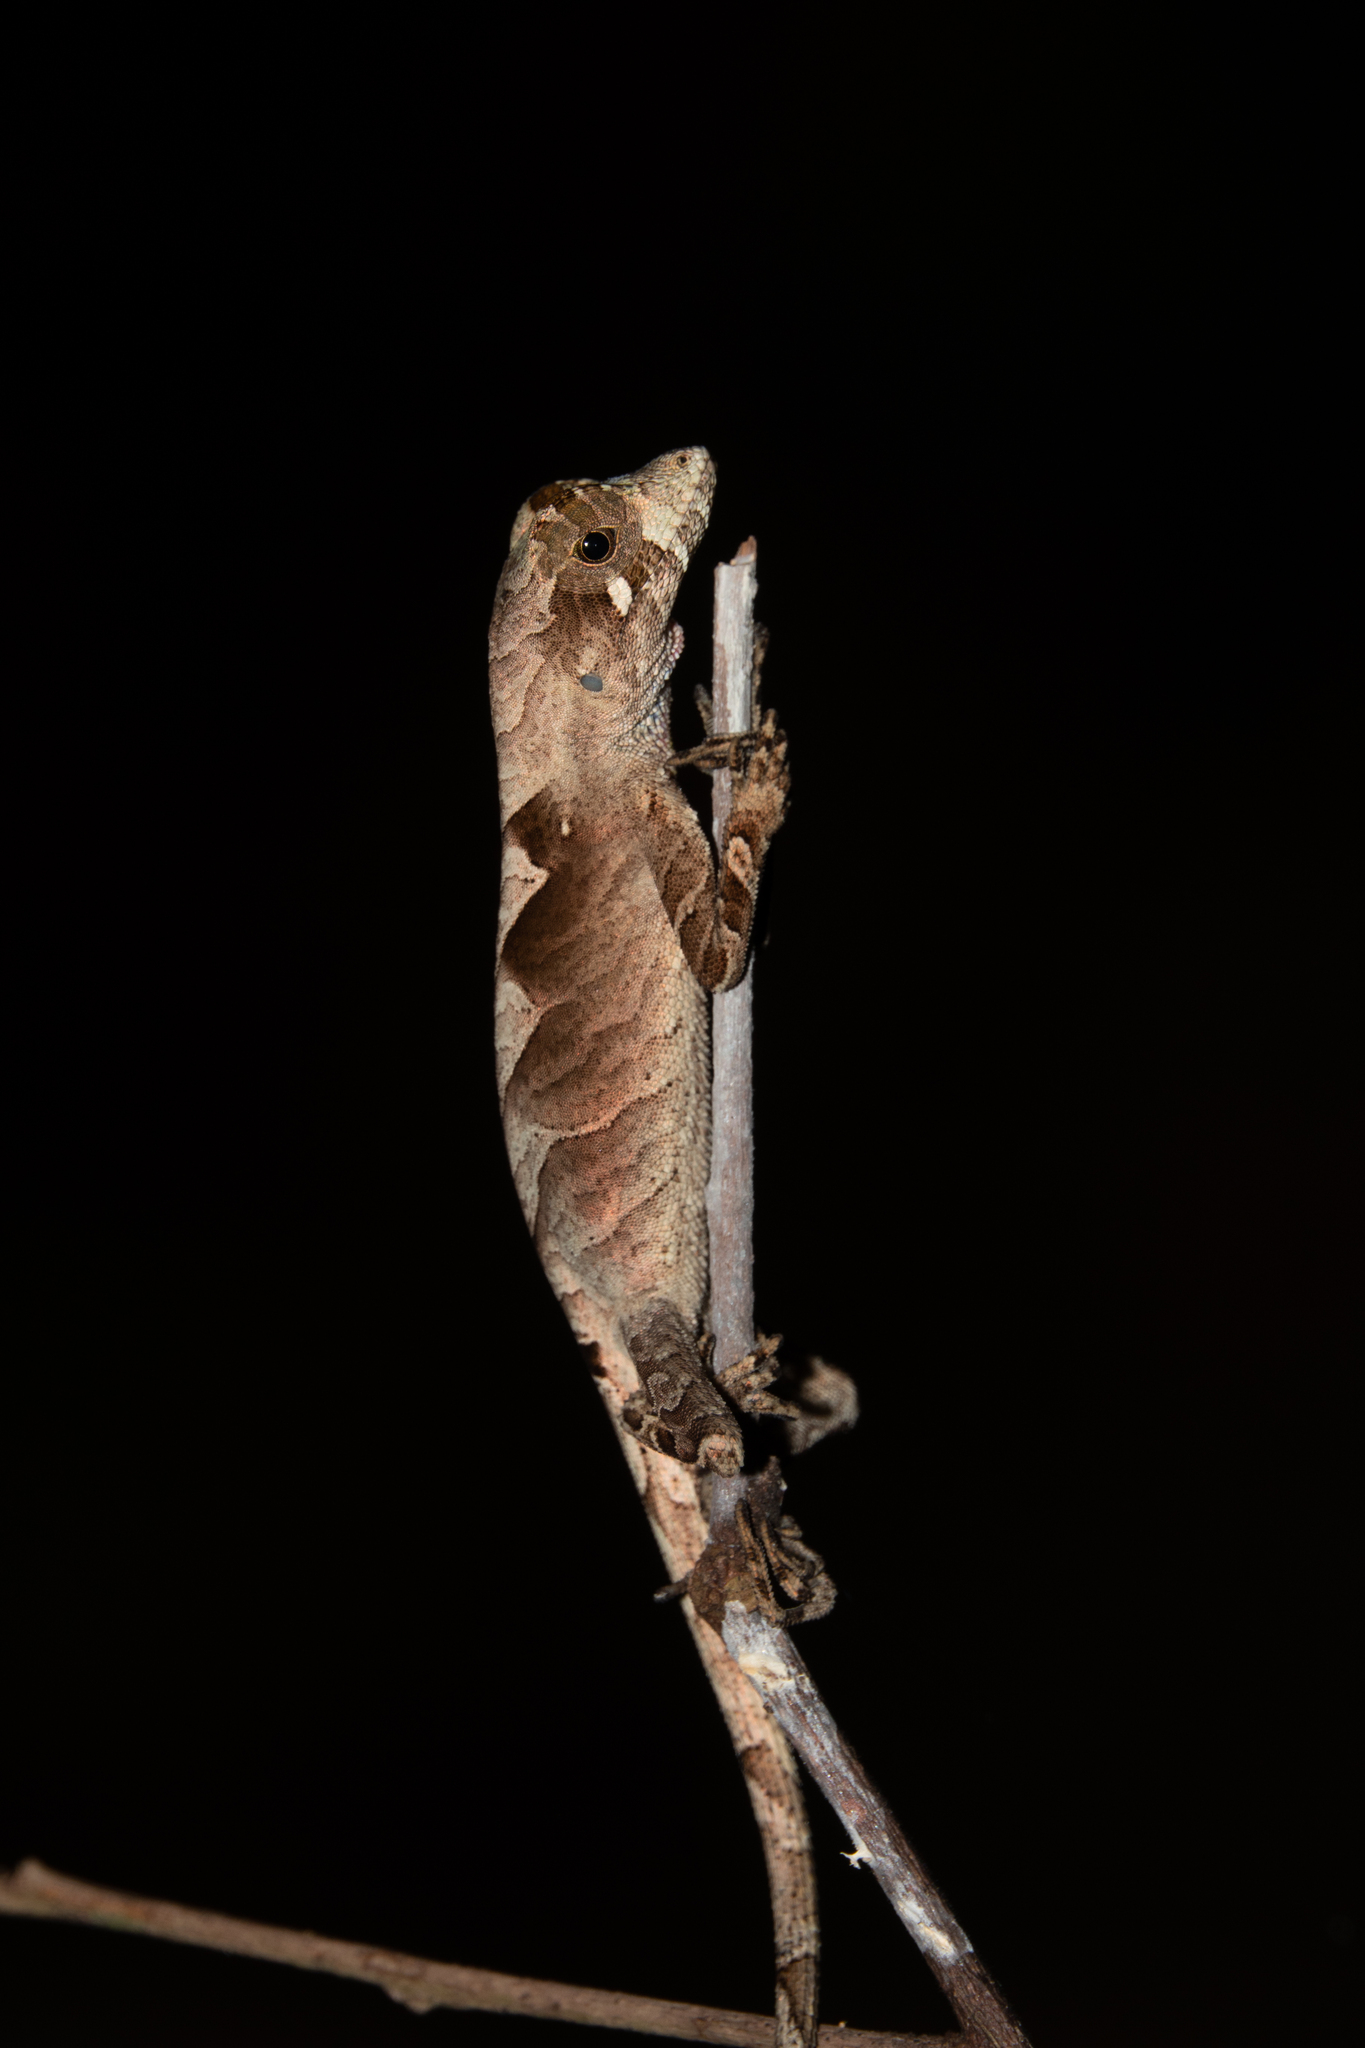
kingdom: Animalia
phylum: Chordata
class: Squamata
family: Dactyloidae
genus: Anolis
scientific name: Anolis scypheus
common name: Yellow-tongued anole
